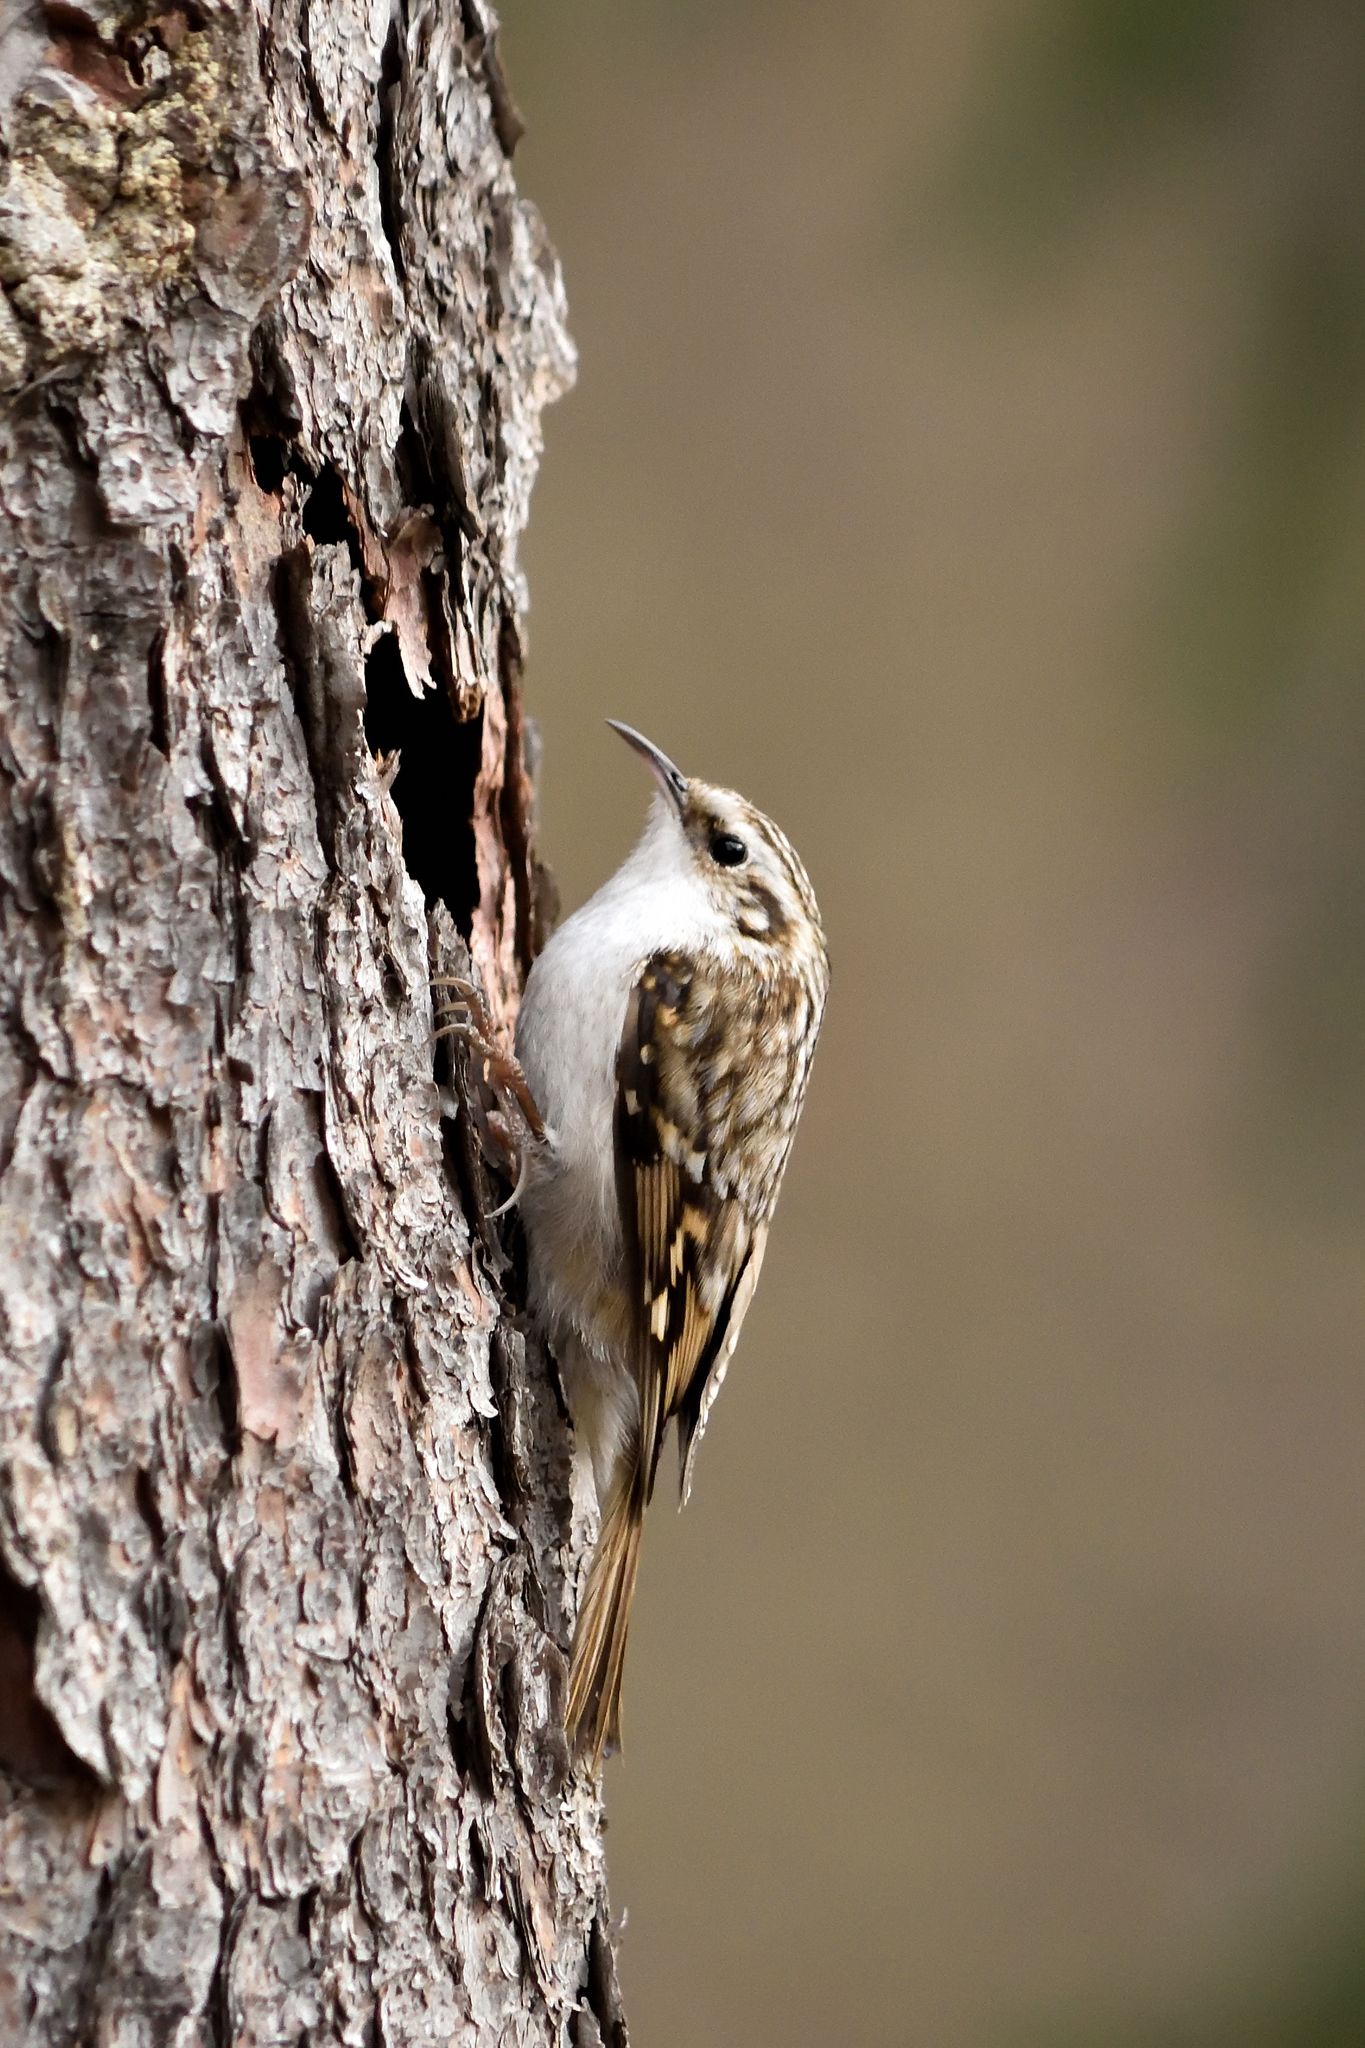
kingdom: Animalia
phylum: Chordata
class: Aves
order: Passeriformes
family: Certhiidae
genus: Certhia
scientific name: Certhia familiaris
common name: Eurasian treecreeper
